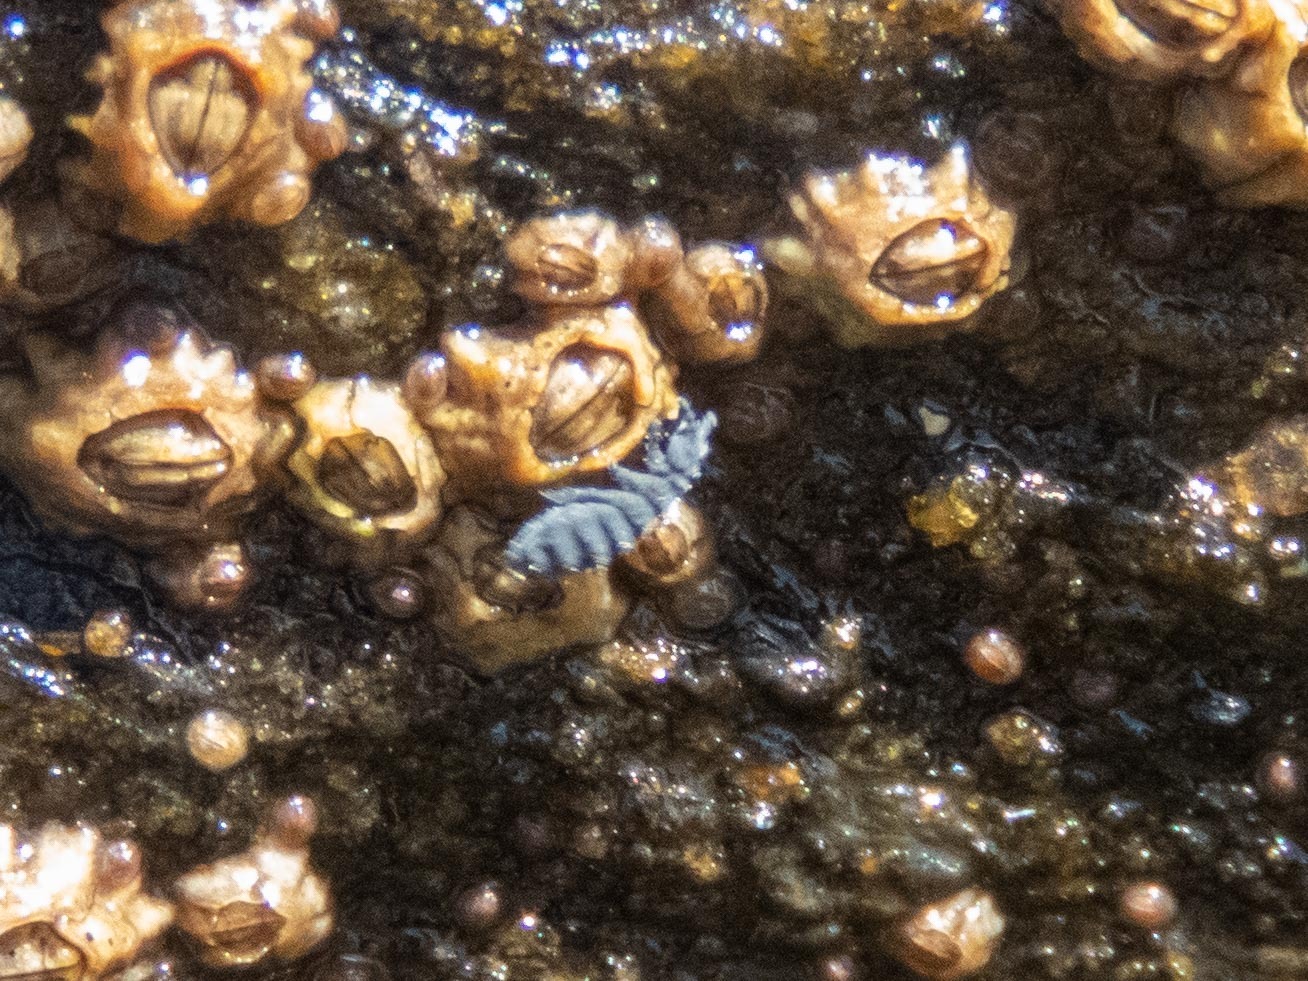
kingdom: Animalia
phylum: Arthropoda
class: Collembola
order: Poduromorpha
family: Neanuridae
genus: Anurida
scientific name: Anurida maritima
